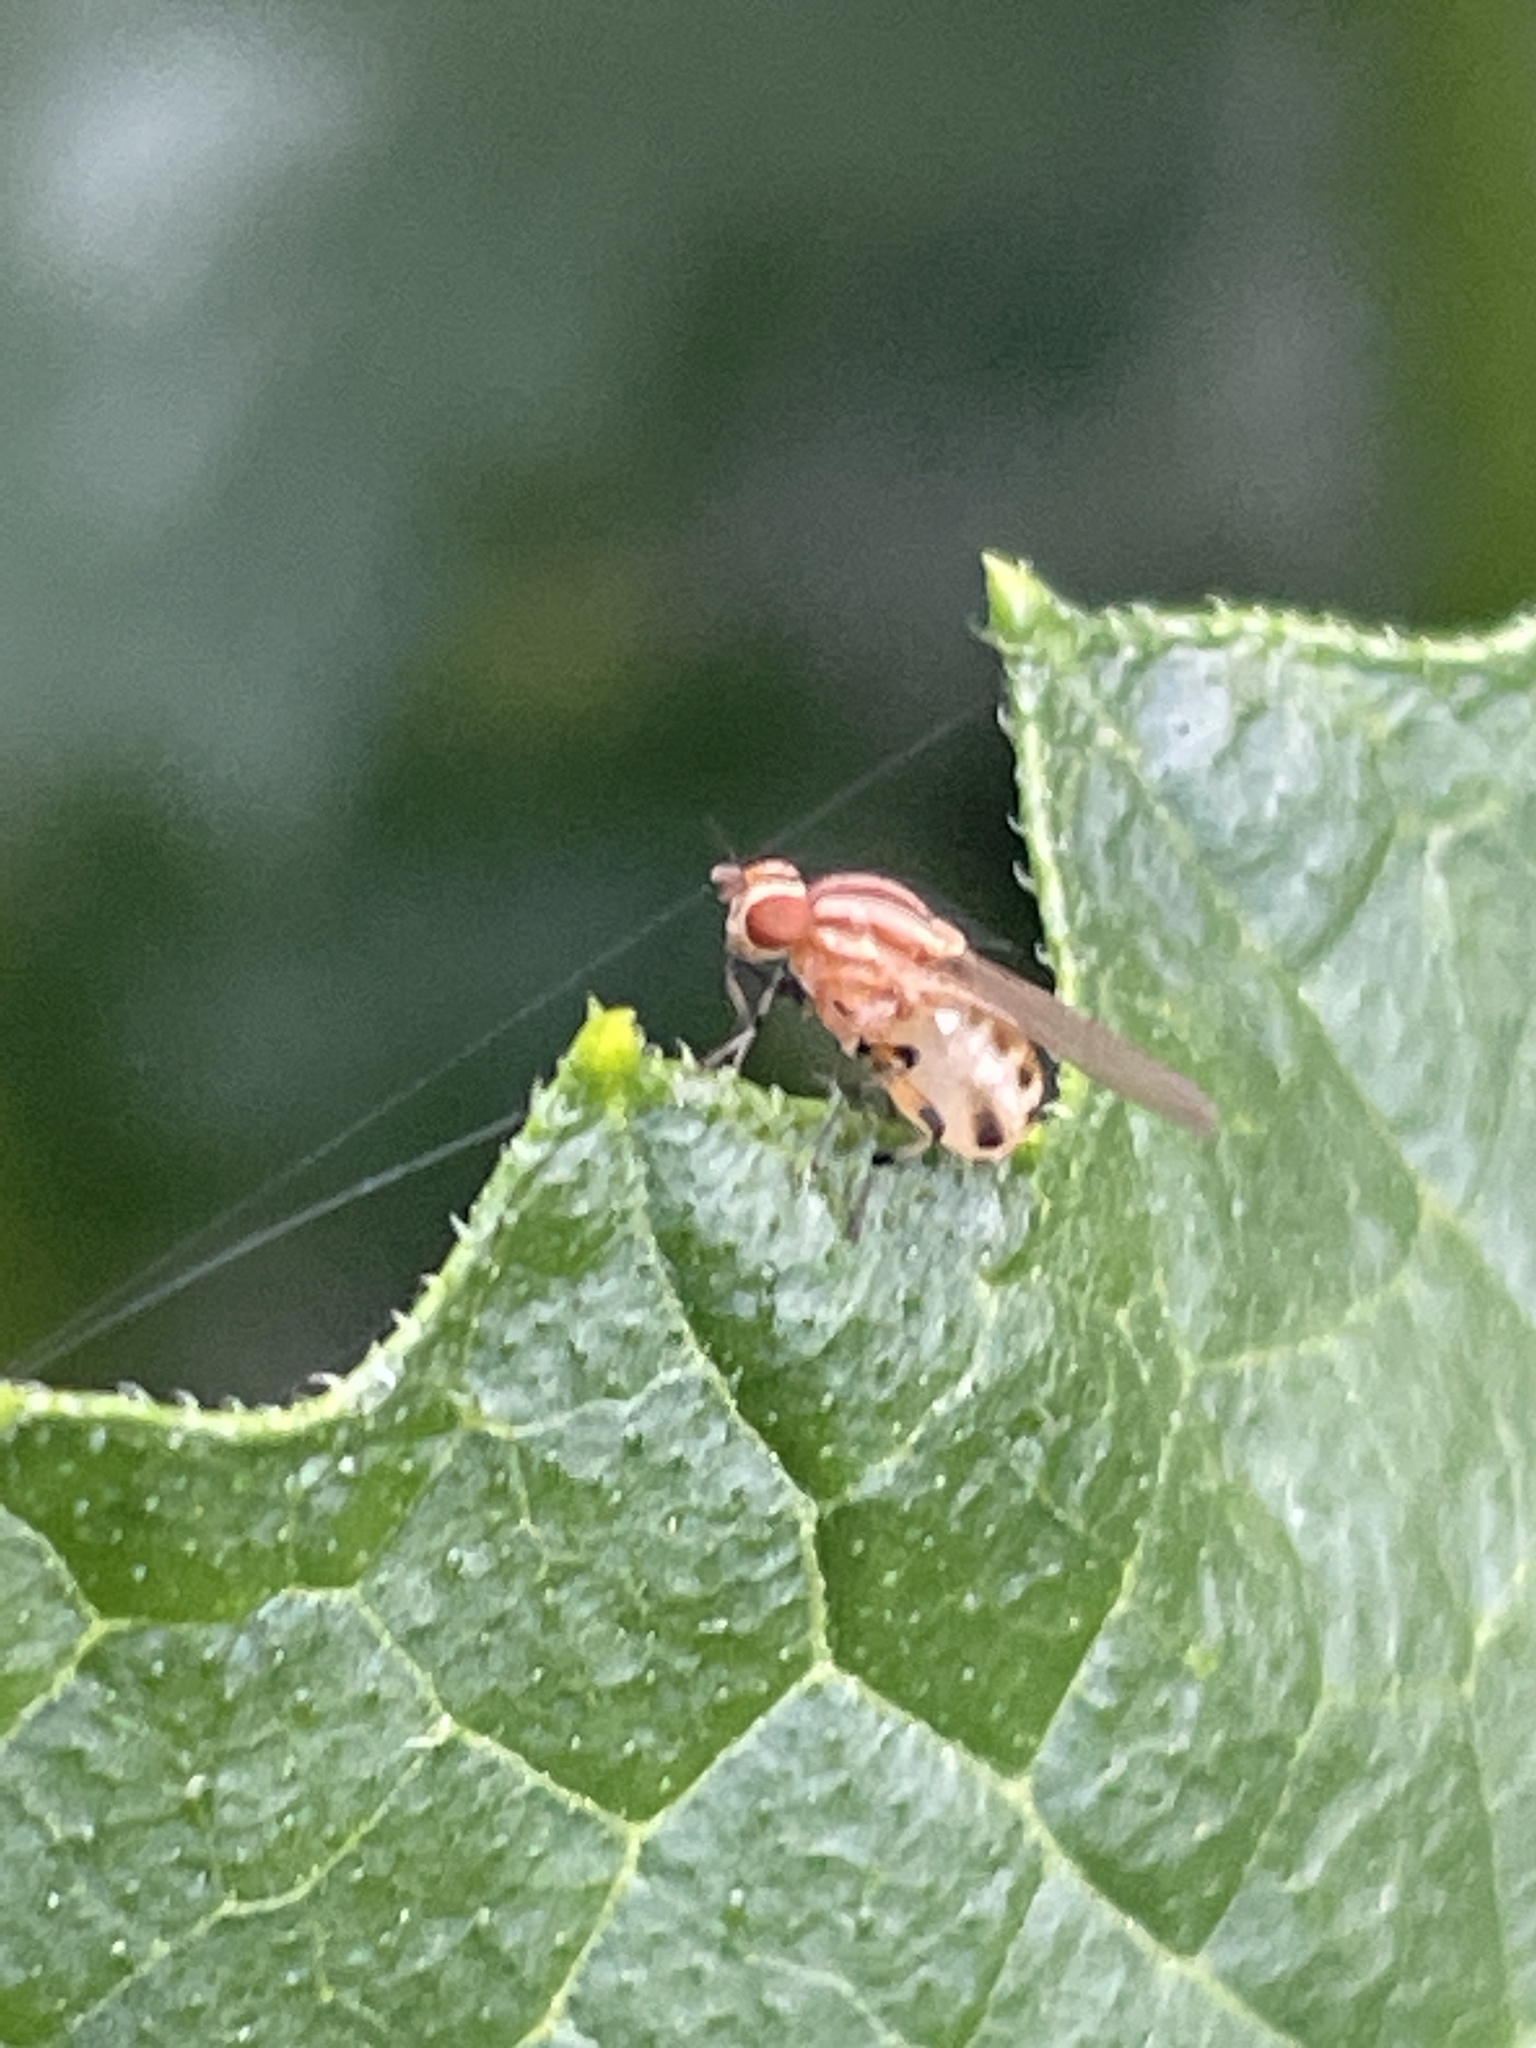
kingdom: Animalia
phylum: Arthropoda
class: Insecta
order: Diptera
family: Lauxaniidae
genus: Sapromyza
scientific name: Sapromyza brunneovittata
